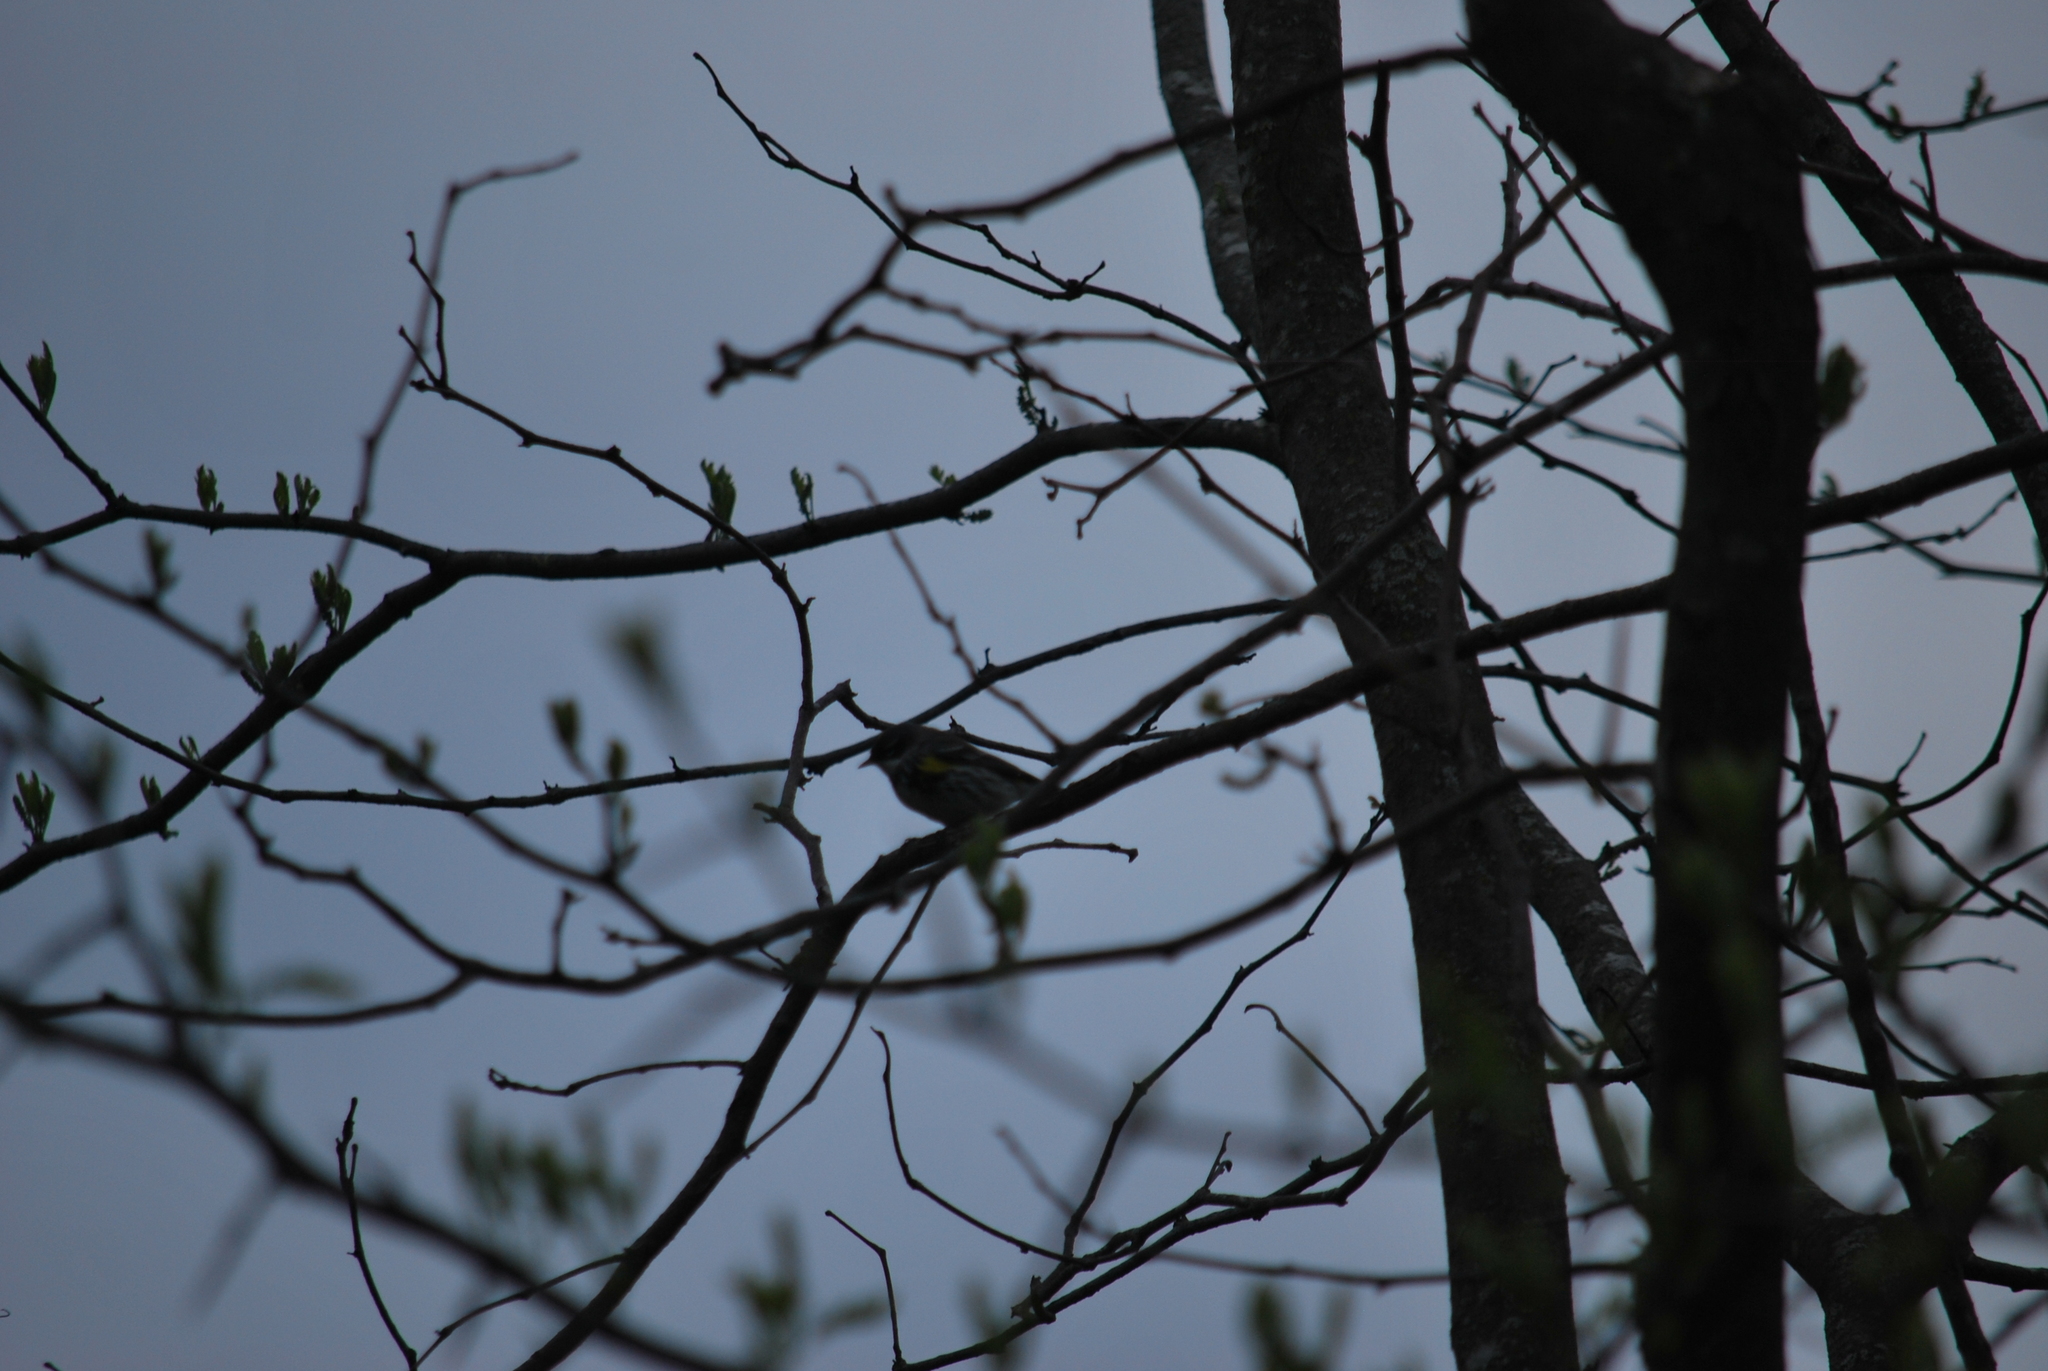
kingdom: Animalia
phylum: Chordata
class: Aves
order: Passeriformes
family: Parulidae
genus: Setophaga
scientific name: Setophaga coronata
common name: Myrtle warbler
